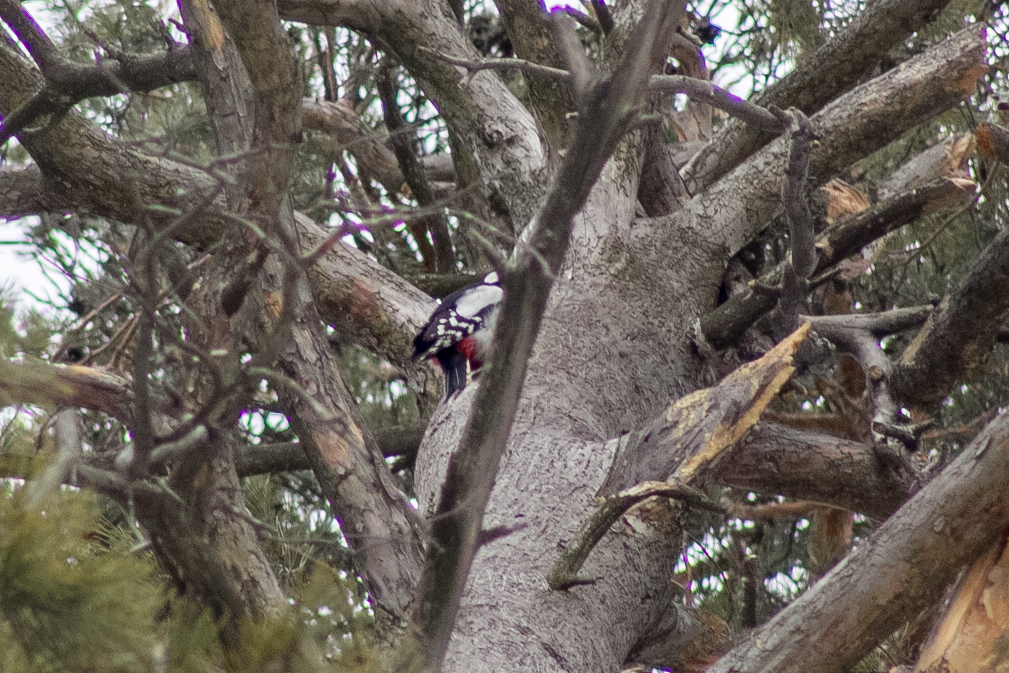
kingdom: Animalia
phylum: Chordata
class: Aves
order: Piciformes
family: Picidae
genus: Dendrocopos
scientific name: Dendrocopos major
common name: Great spotted woodpecker
